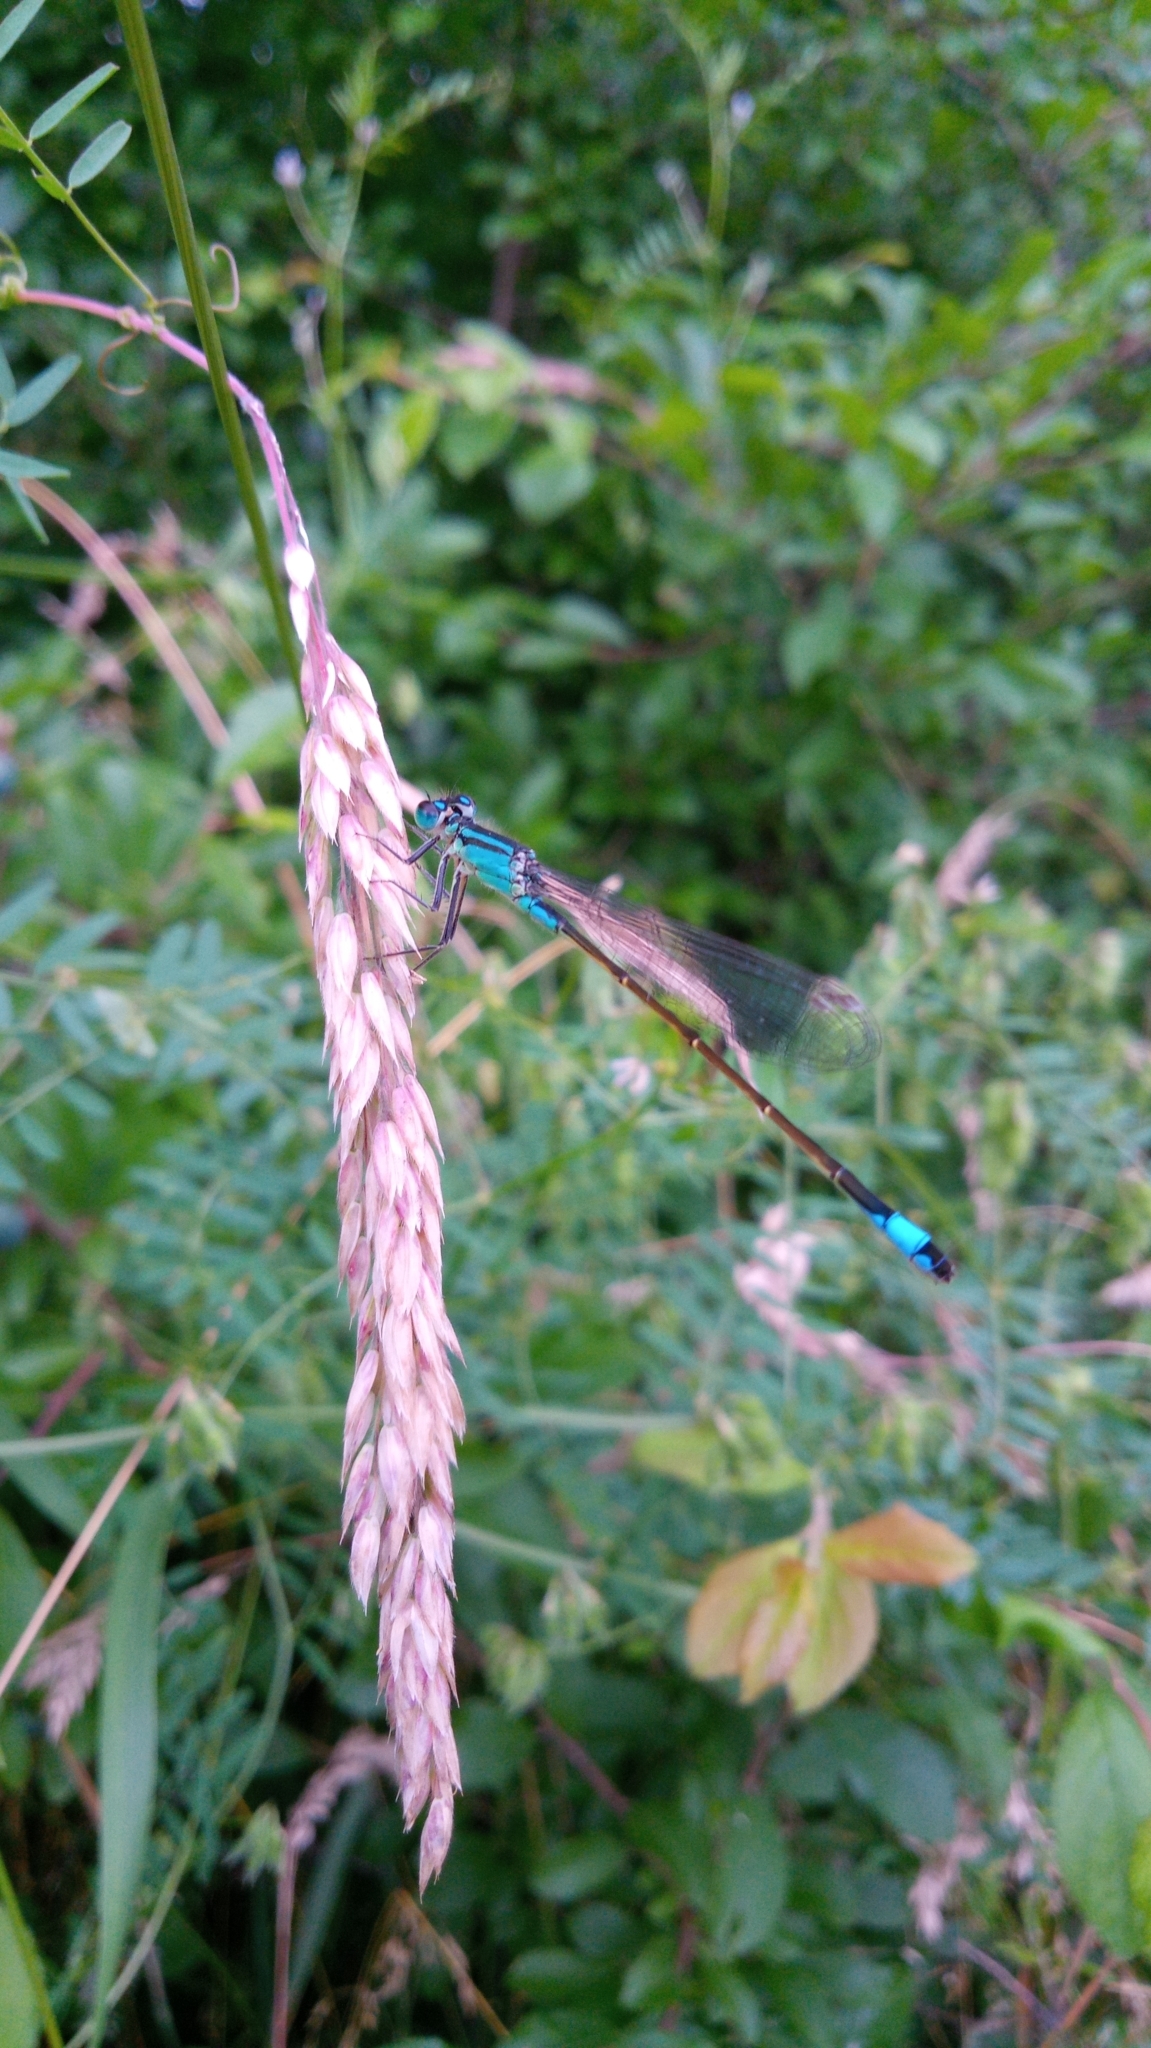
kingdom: Animalia
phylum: Arthropoda
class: Insecta
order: Odonata
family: Coenagrionidae
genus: Ischnura
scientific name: Ischnura elegans
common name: Blue-tailed damselfly
